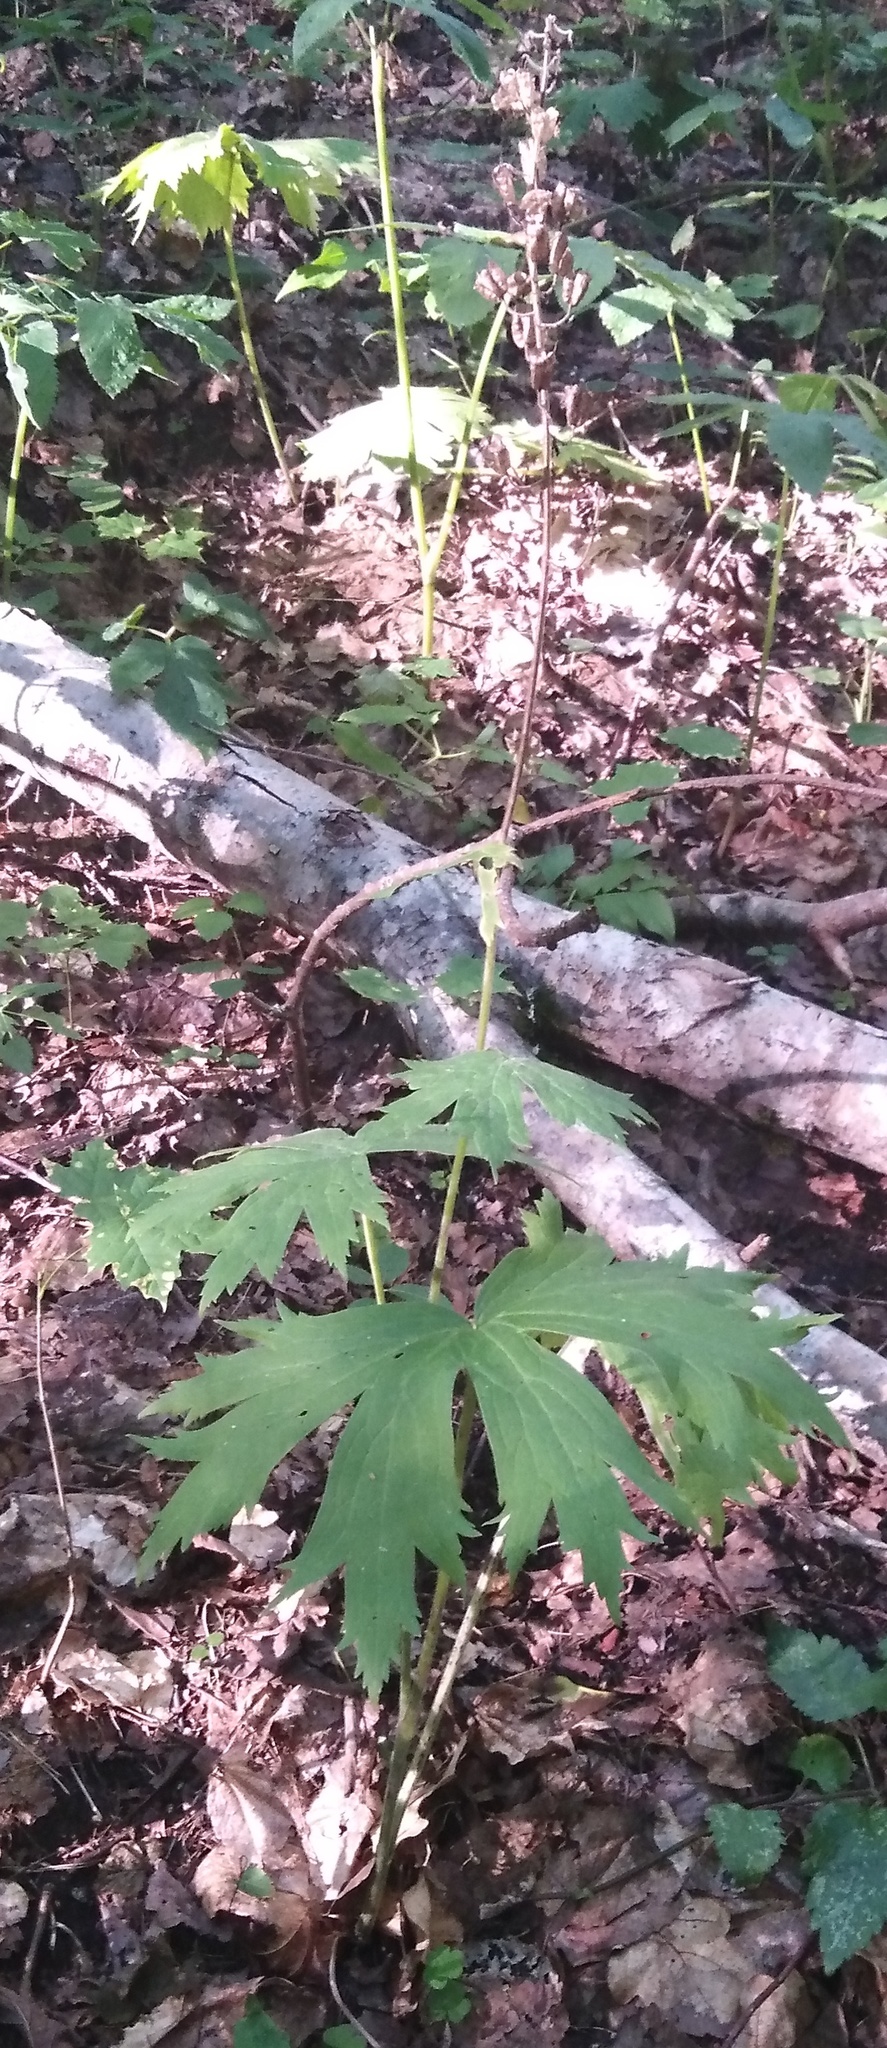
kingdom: Plantae
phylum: Tracheophyta
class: Magnoliopsida
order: Ranunculales
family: Ranunculaceae
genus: Aconitum
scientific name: Aconitum septentrionale
